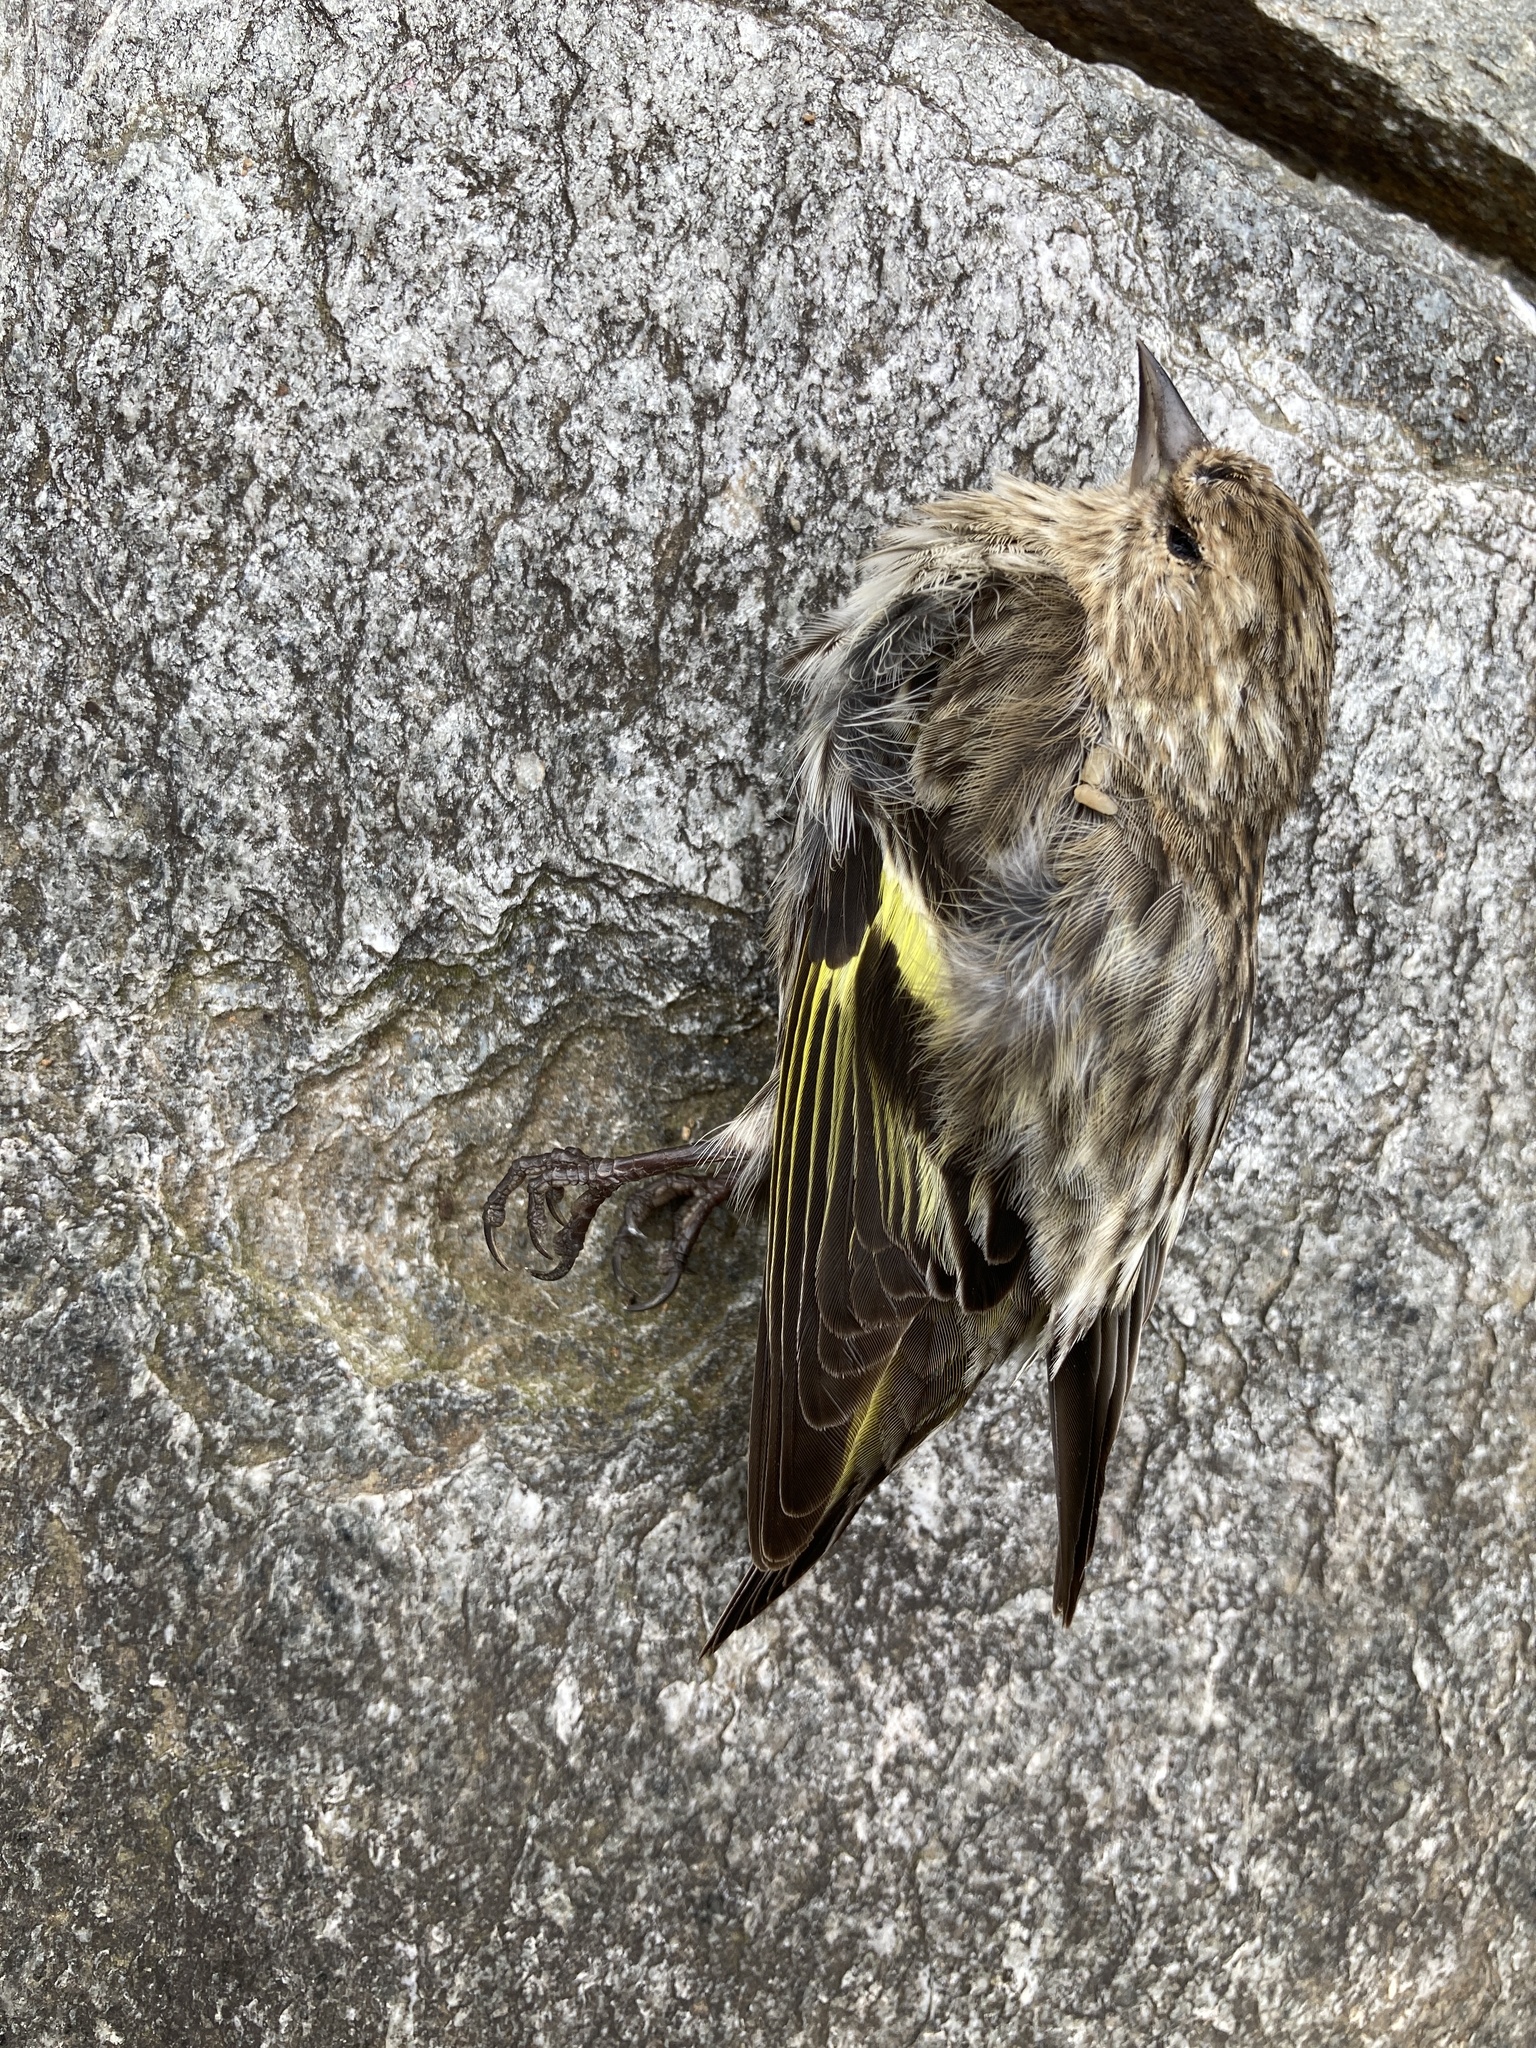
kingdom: Animalia
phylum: Chordata
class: Aves
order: Passeriformes
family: Fringillidae
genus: Spinus
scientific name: Spinus pinus
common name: Pine siskin
